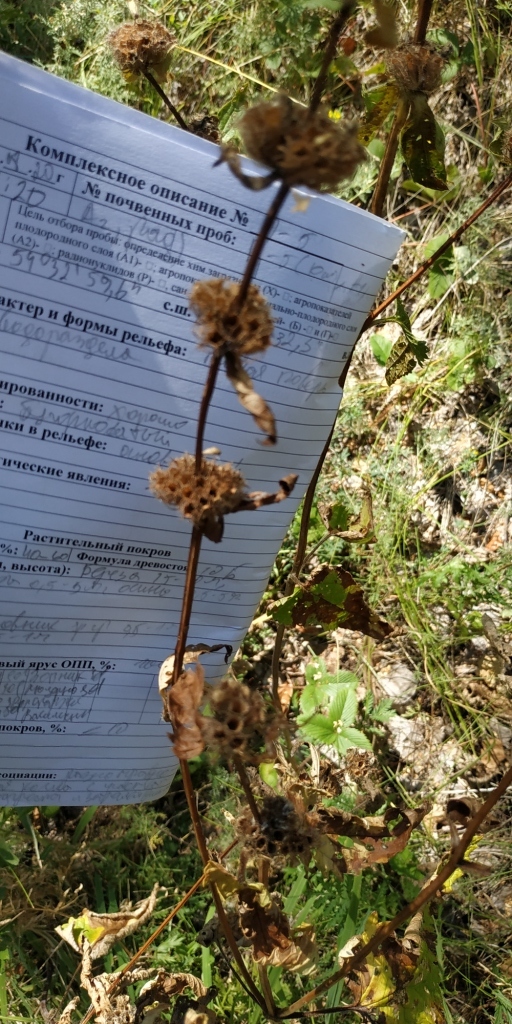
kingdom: Plantae
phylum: Tracheophyta
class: Magnoliopsida
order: Lamiales
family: Lamiaceae
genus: Phlomoides
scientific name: Phlomoides tuberosa
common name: Tuberous jerusalem sage
